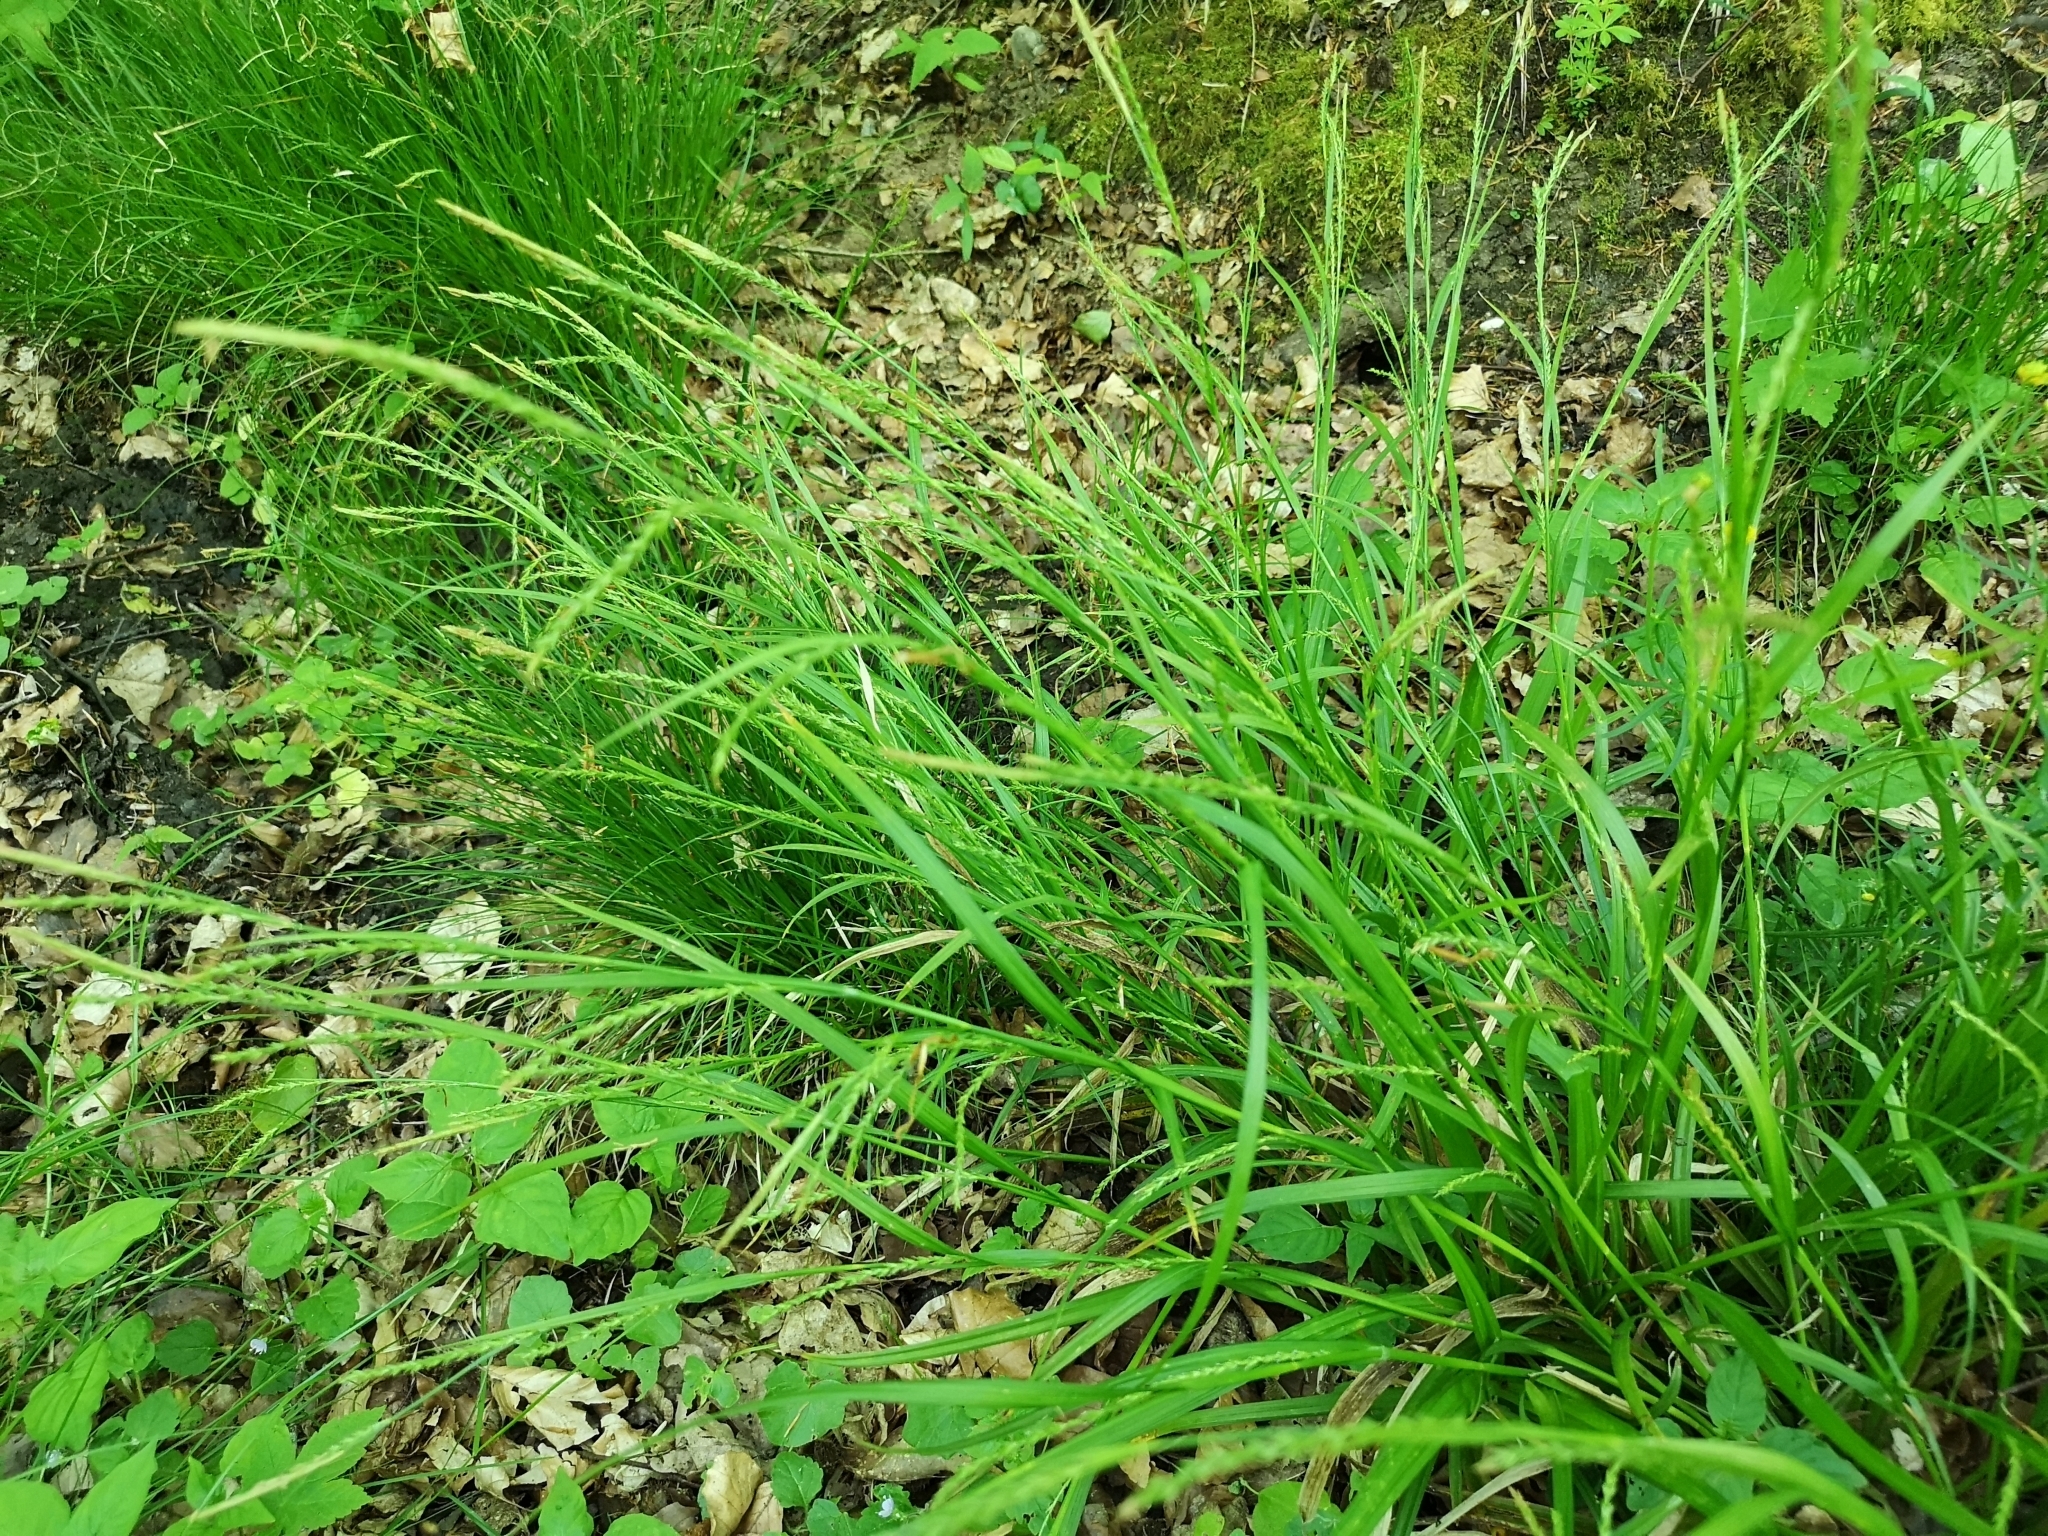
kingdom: Plantae
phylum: Tracheophyta
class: Liliopsida
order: Poales
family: Cyperaceae
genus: Carex
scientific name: Carex strigosa
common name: Thin-spiked wood-sedge
